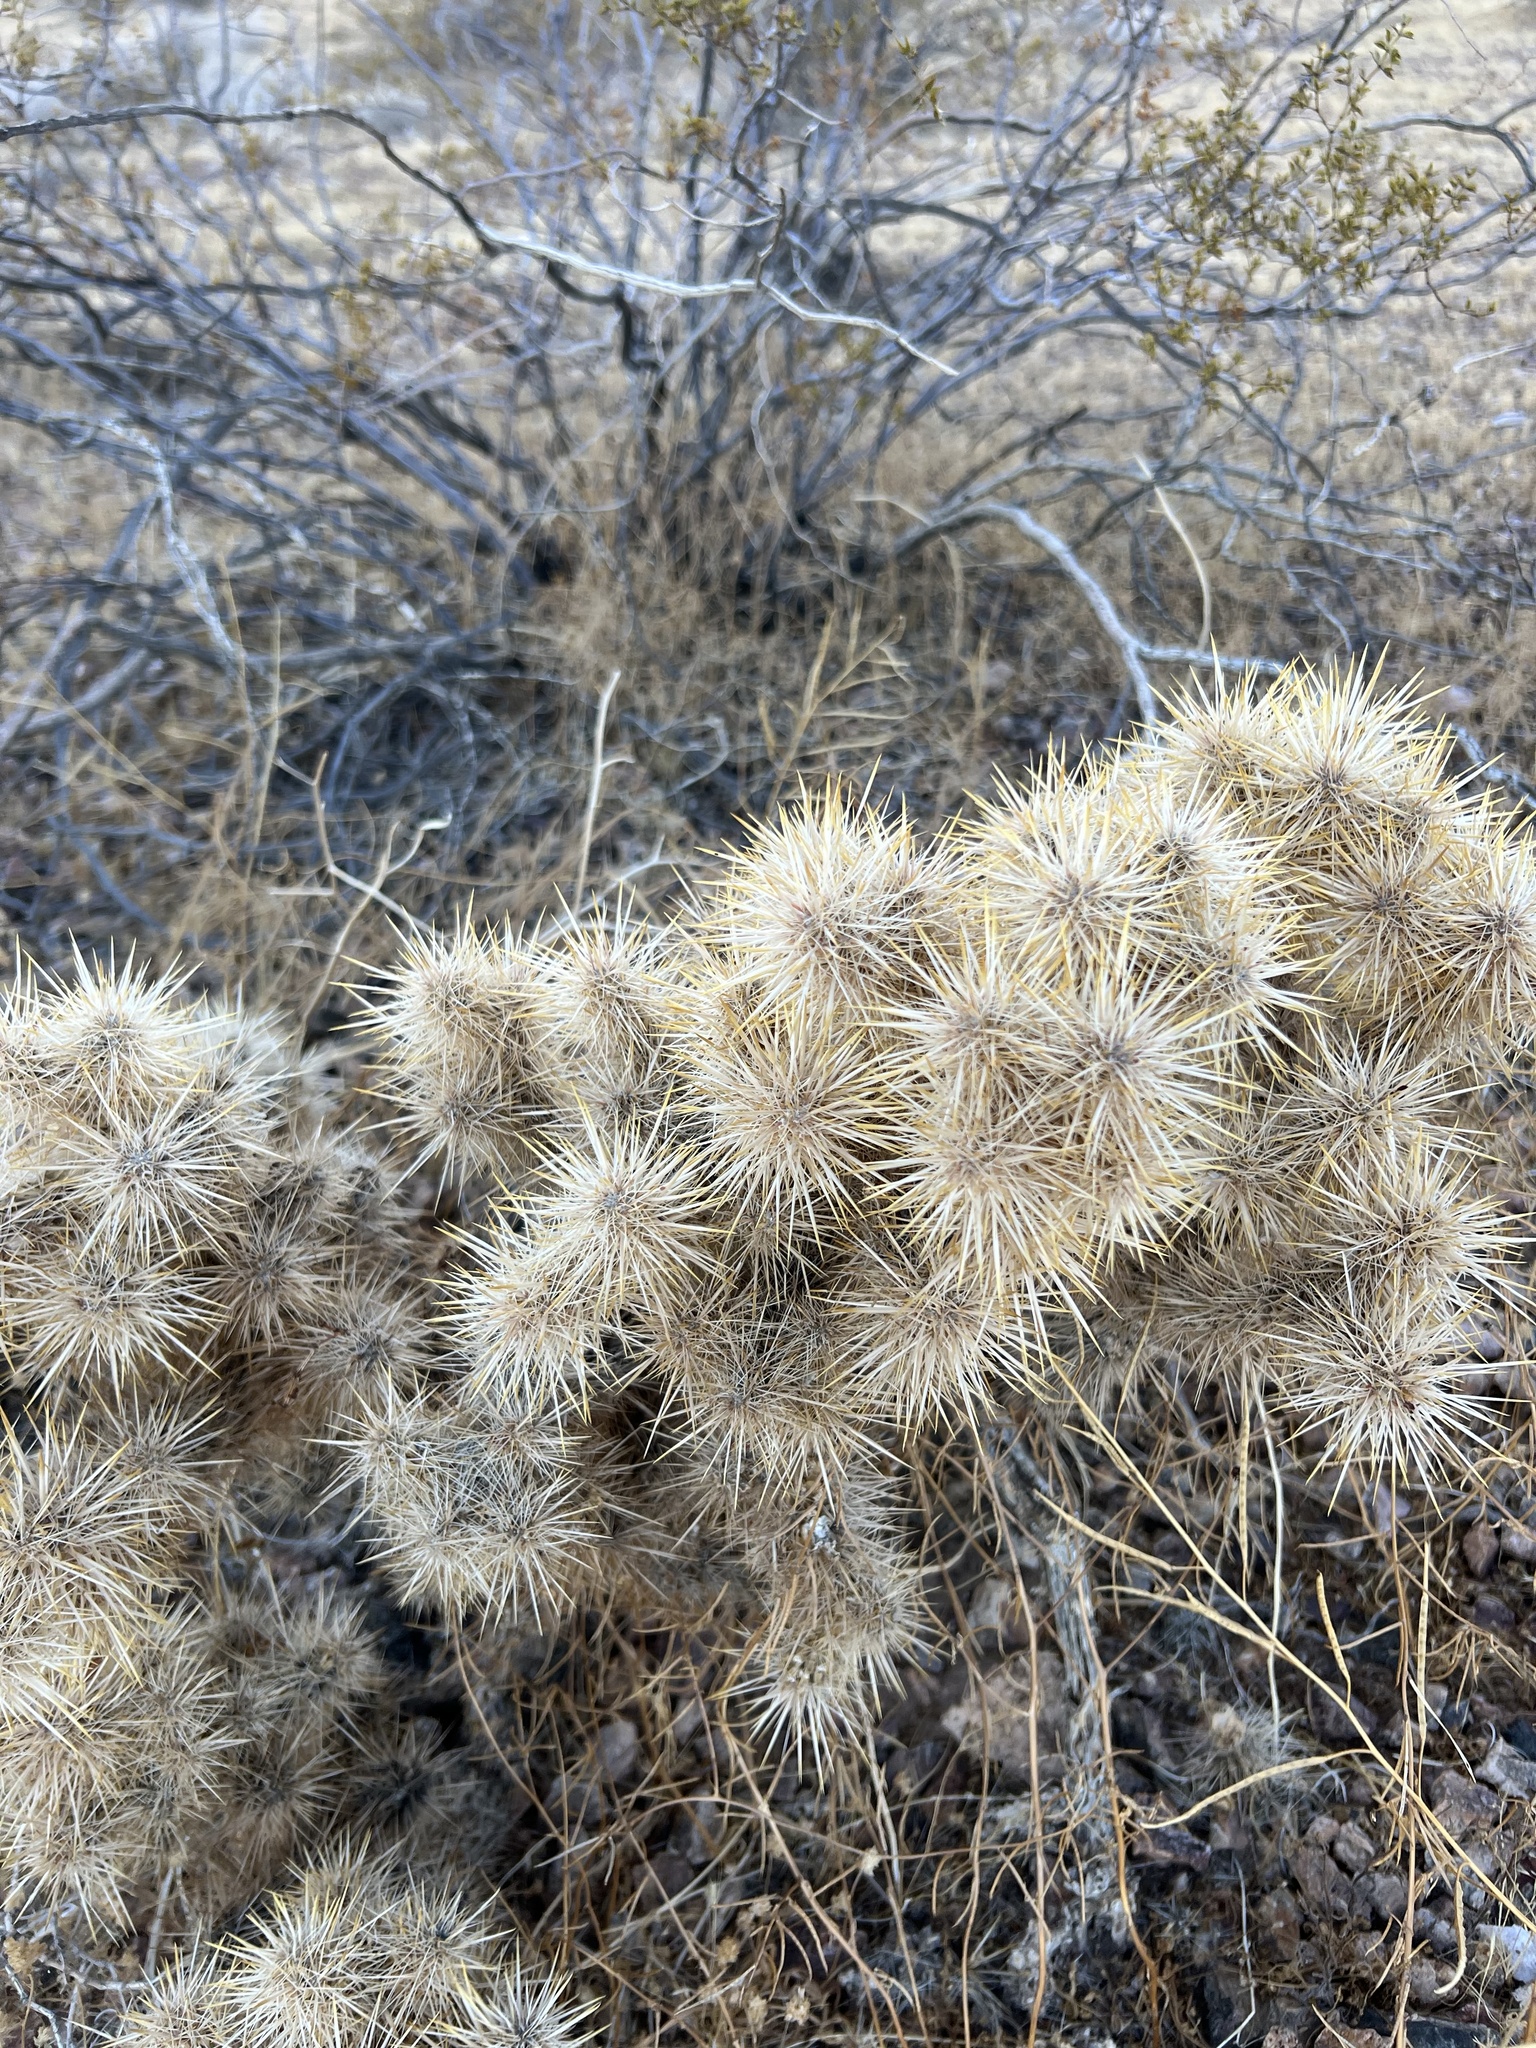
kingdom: Plantae
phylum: Tracheophyta
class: Magnoliopsida
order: Caryophyllales
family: Cactaceae
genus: Cylindropuntia
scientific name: Cylindropuntia echinocarpa
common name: Ground cholla
